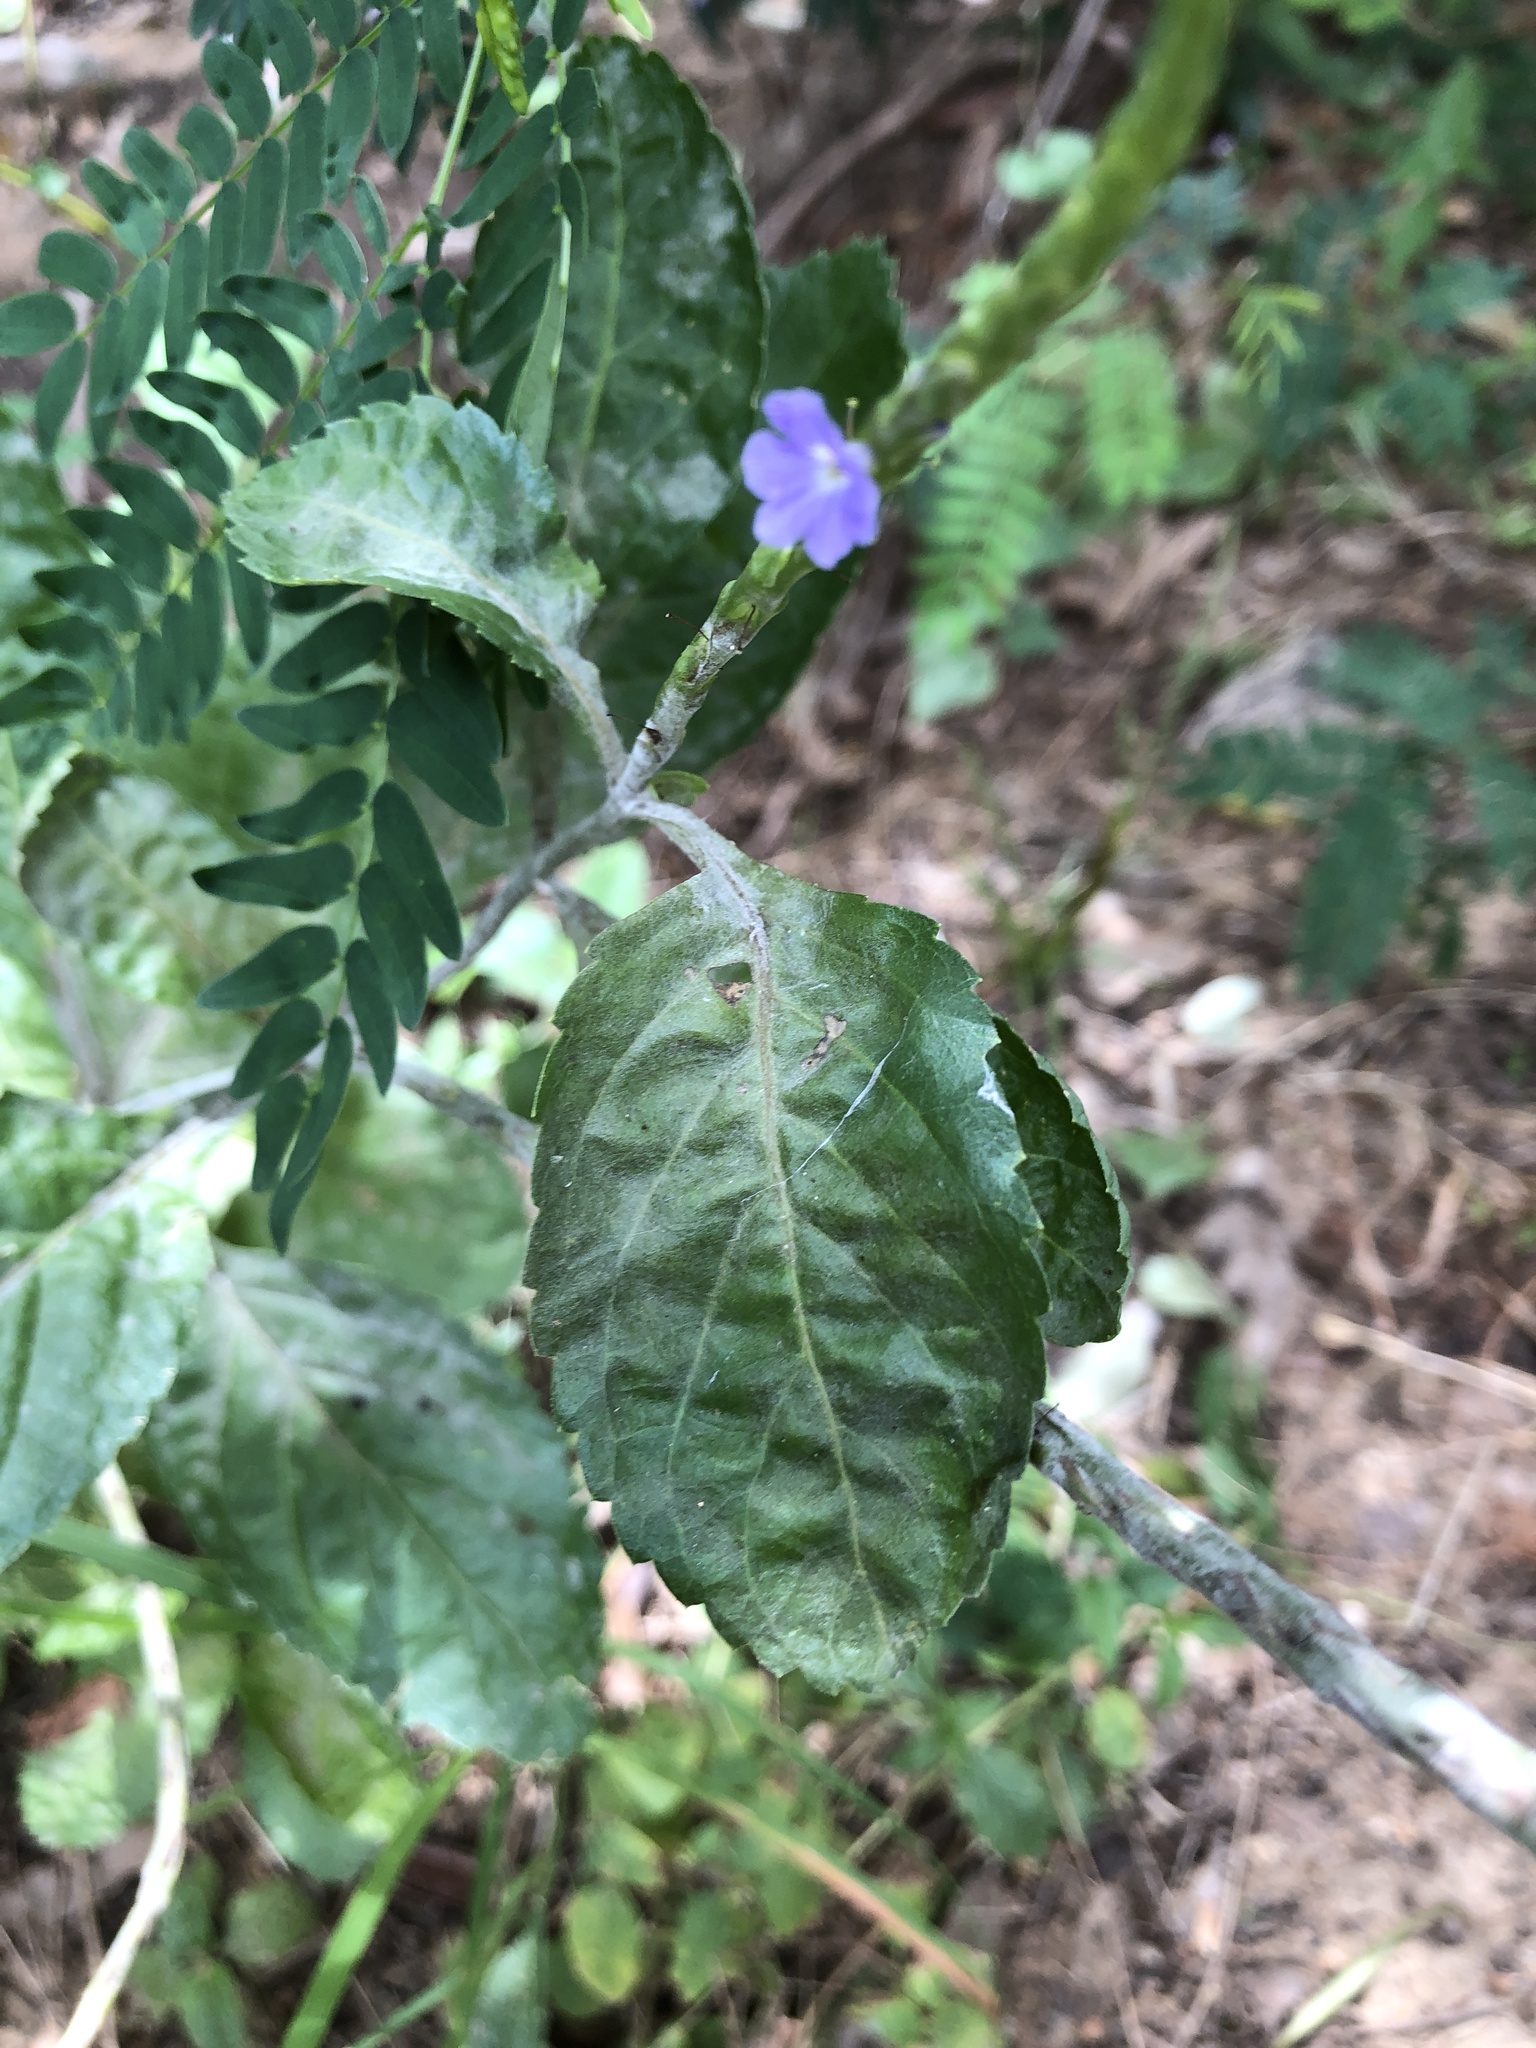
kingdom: Plantae
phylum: Tracheophyta
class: Magnoliopsida
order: Lamiales
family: Verbenaceae
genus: Stachytarpheta
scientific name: Stachytarpheta jamaicensis
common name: Light-blue snakeweed
